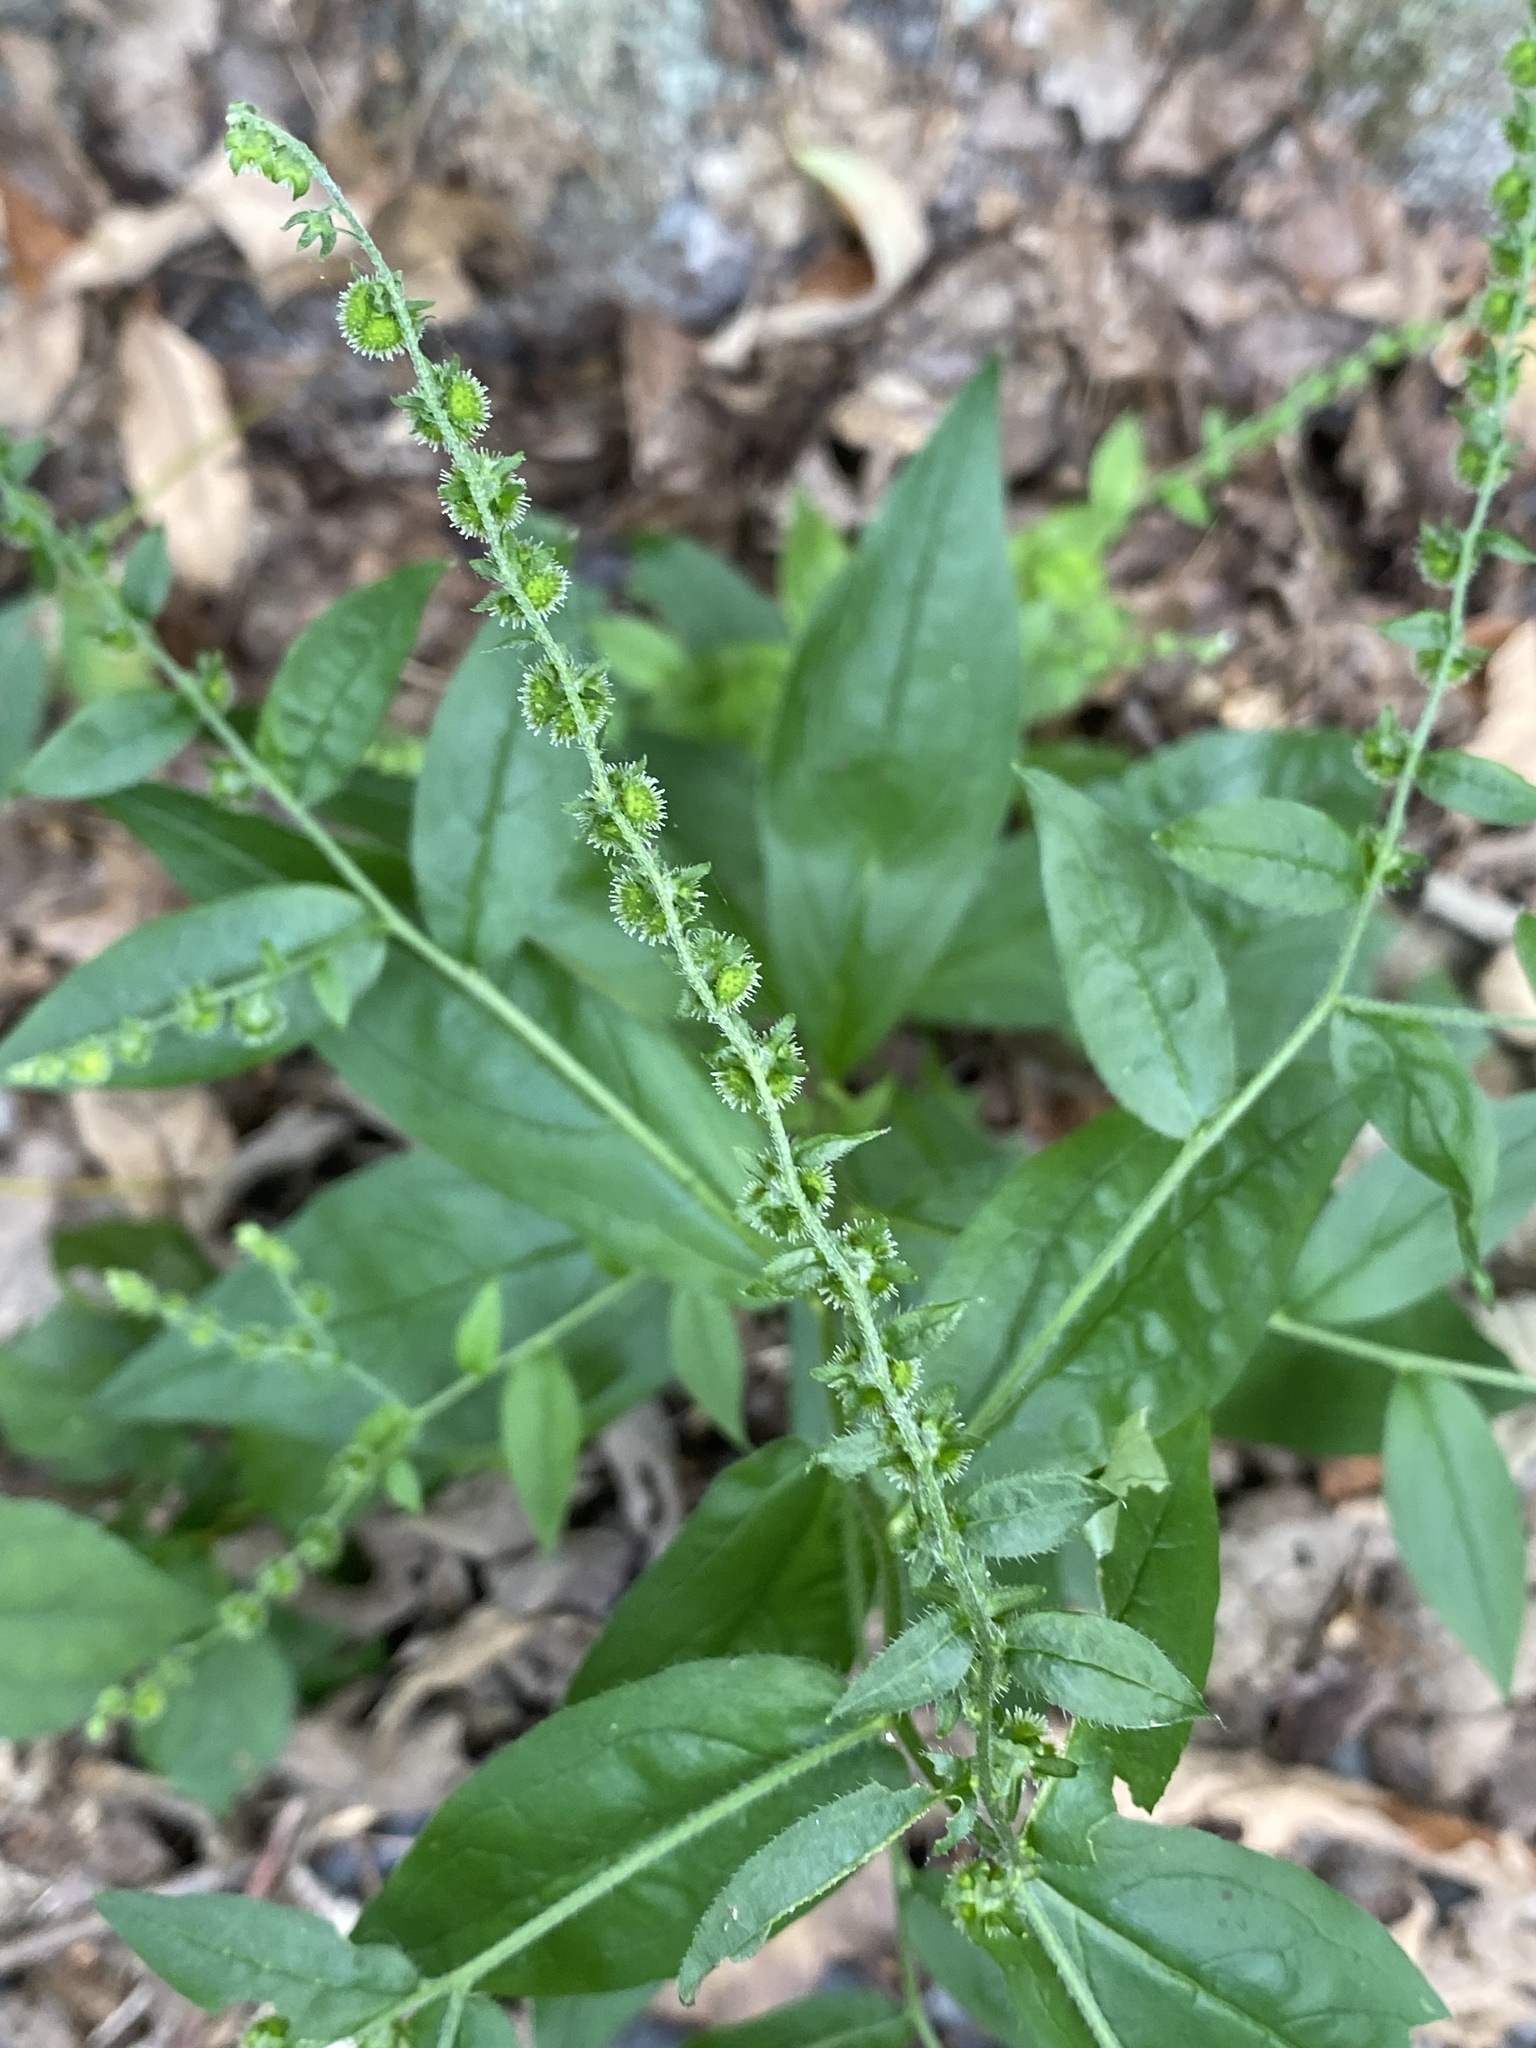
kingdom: Plantae
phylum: Tracheophyta
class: Magnoliopsida
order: Boraginales
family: Boraginaceae
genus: Hackelia
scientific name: Hackelia virginiana
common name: Beggar's-lice
